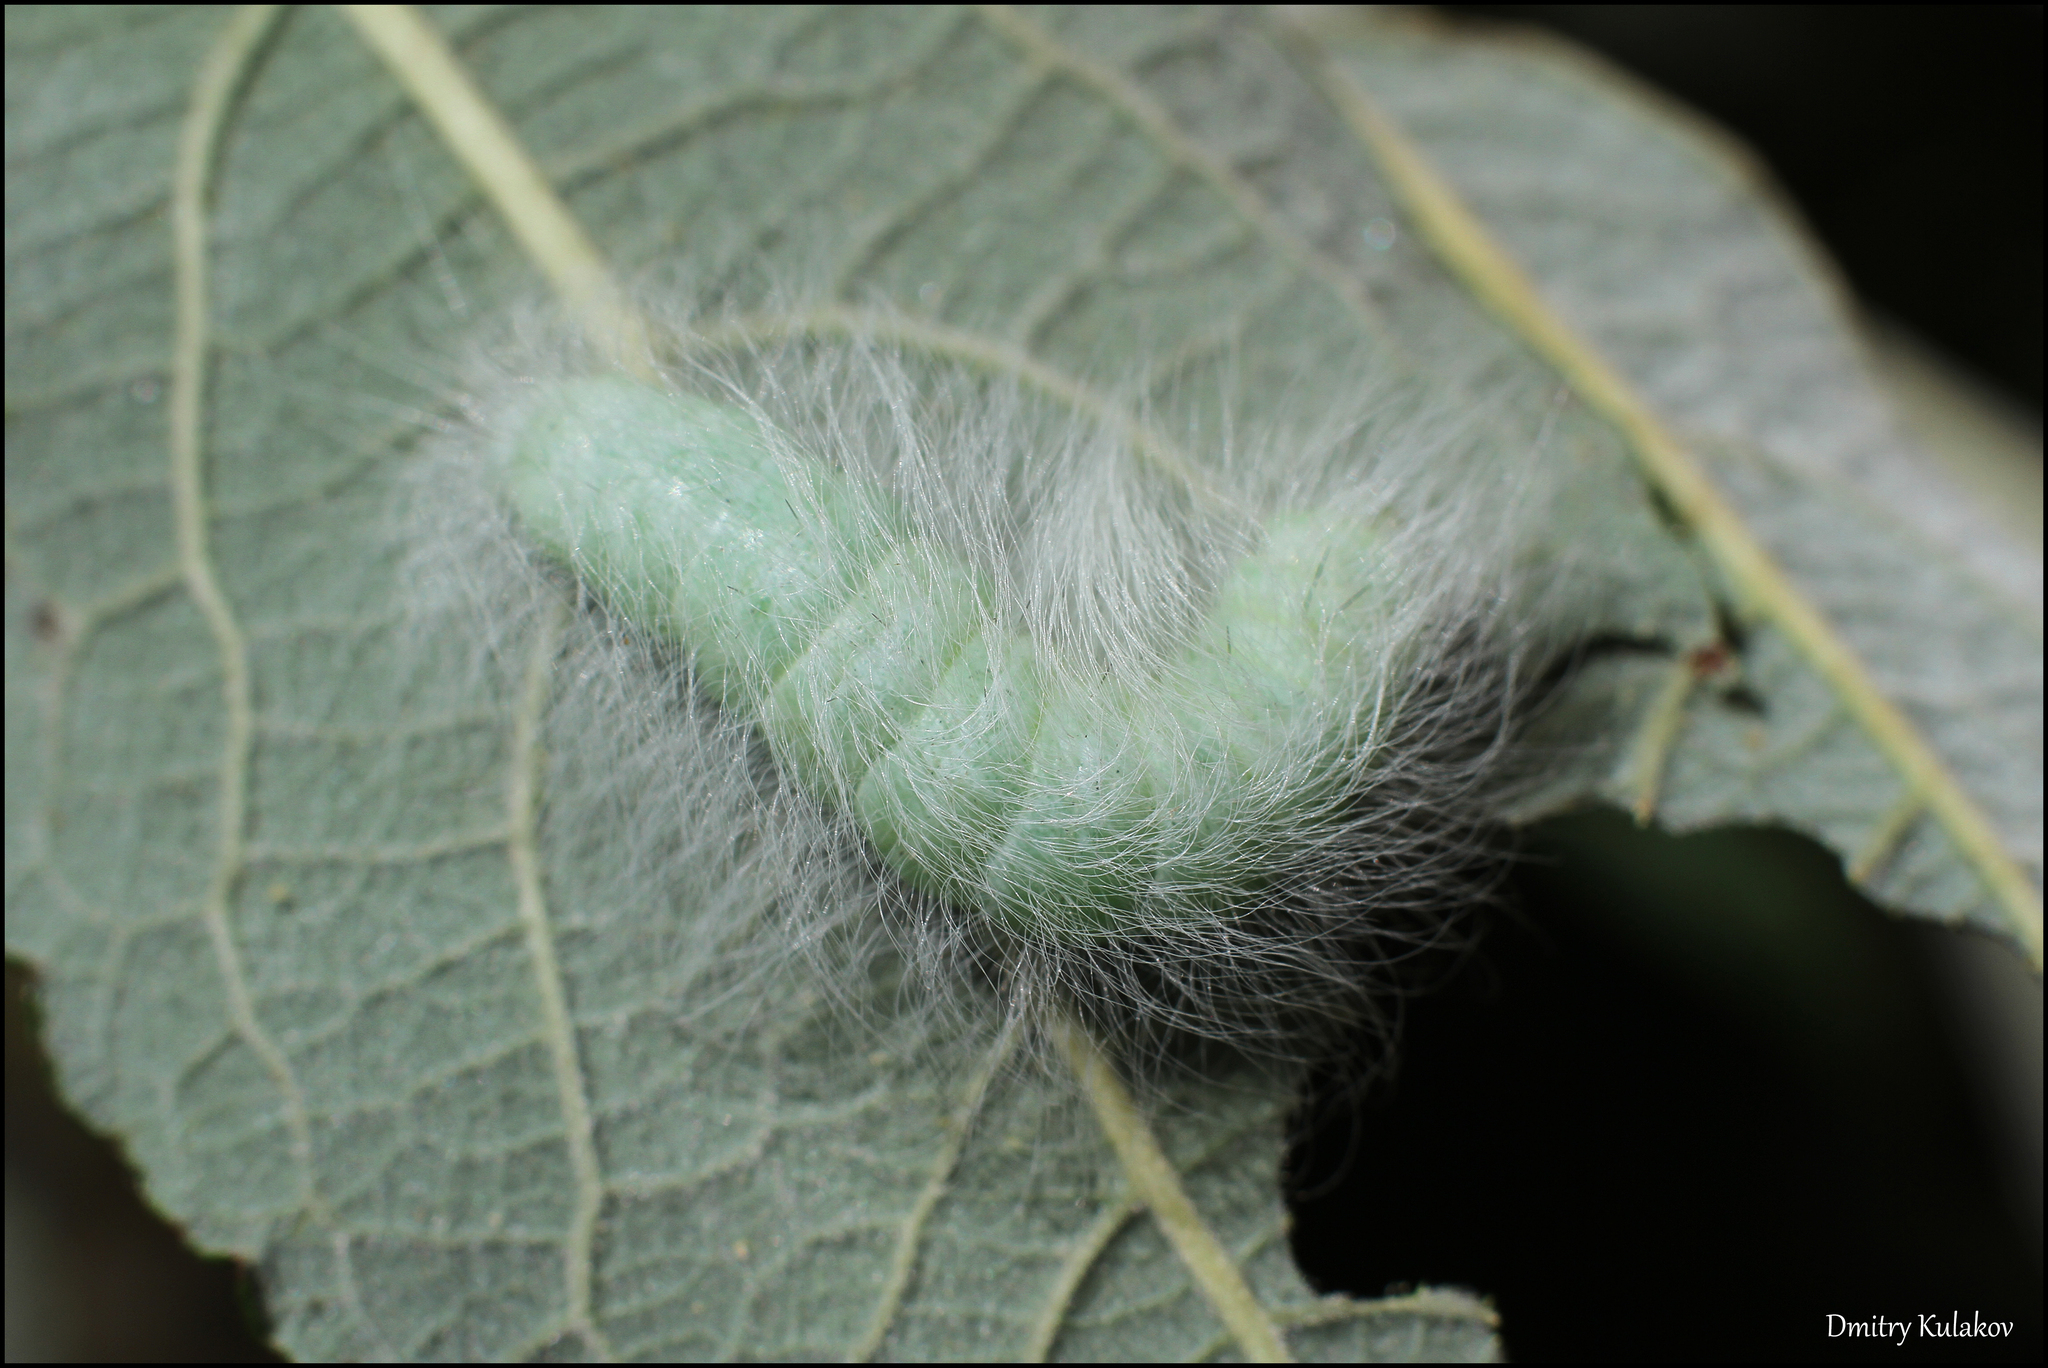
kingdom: Animalia
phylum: Arthropoda
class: Insecta
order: Lepidoptera
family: Noctuidae
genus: Acronicta
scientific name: Acronicta leporina
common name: Miller
